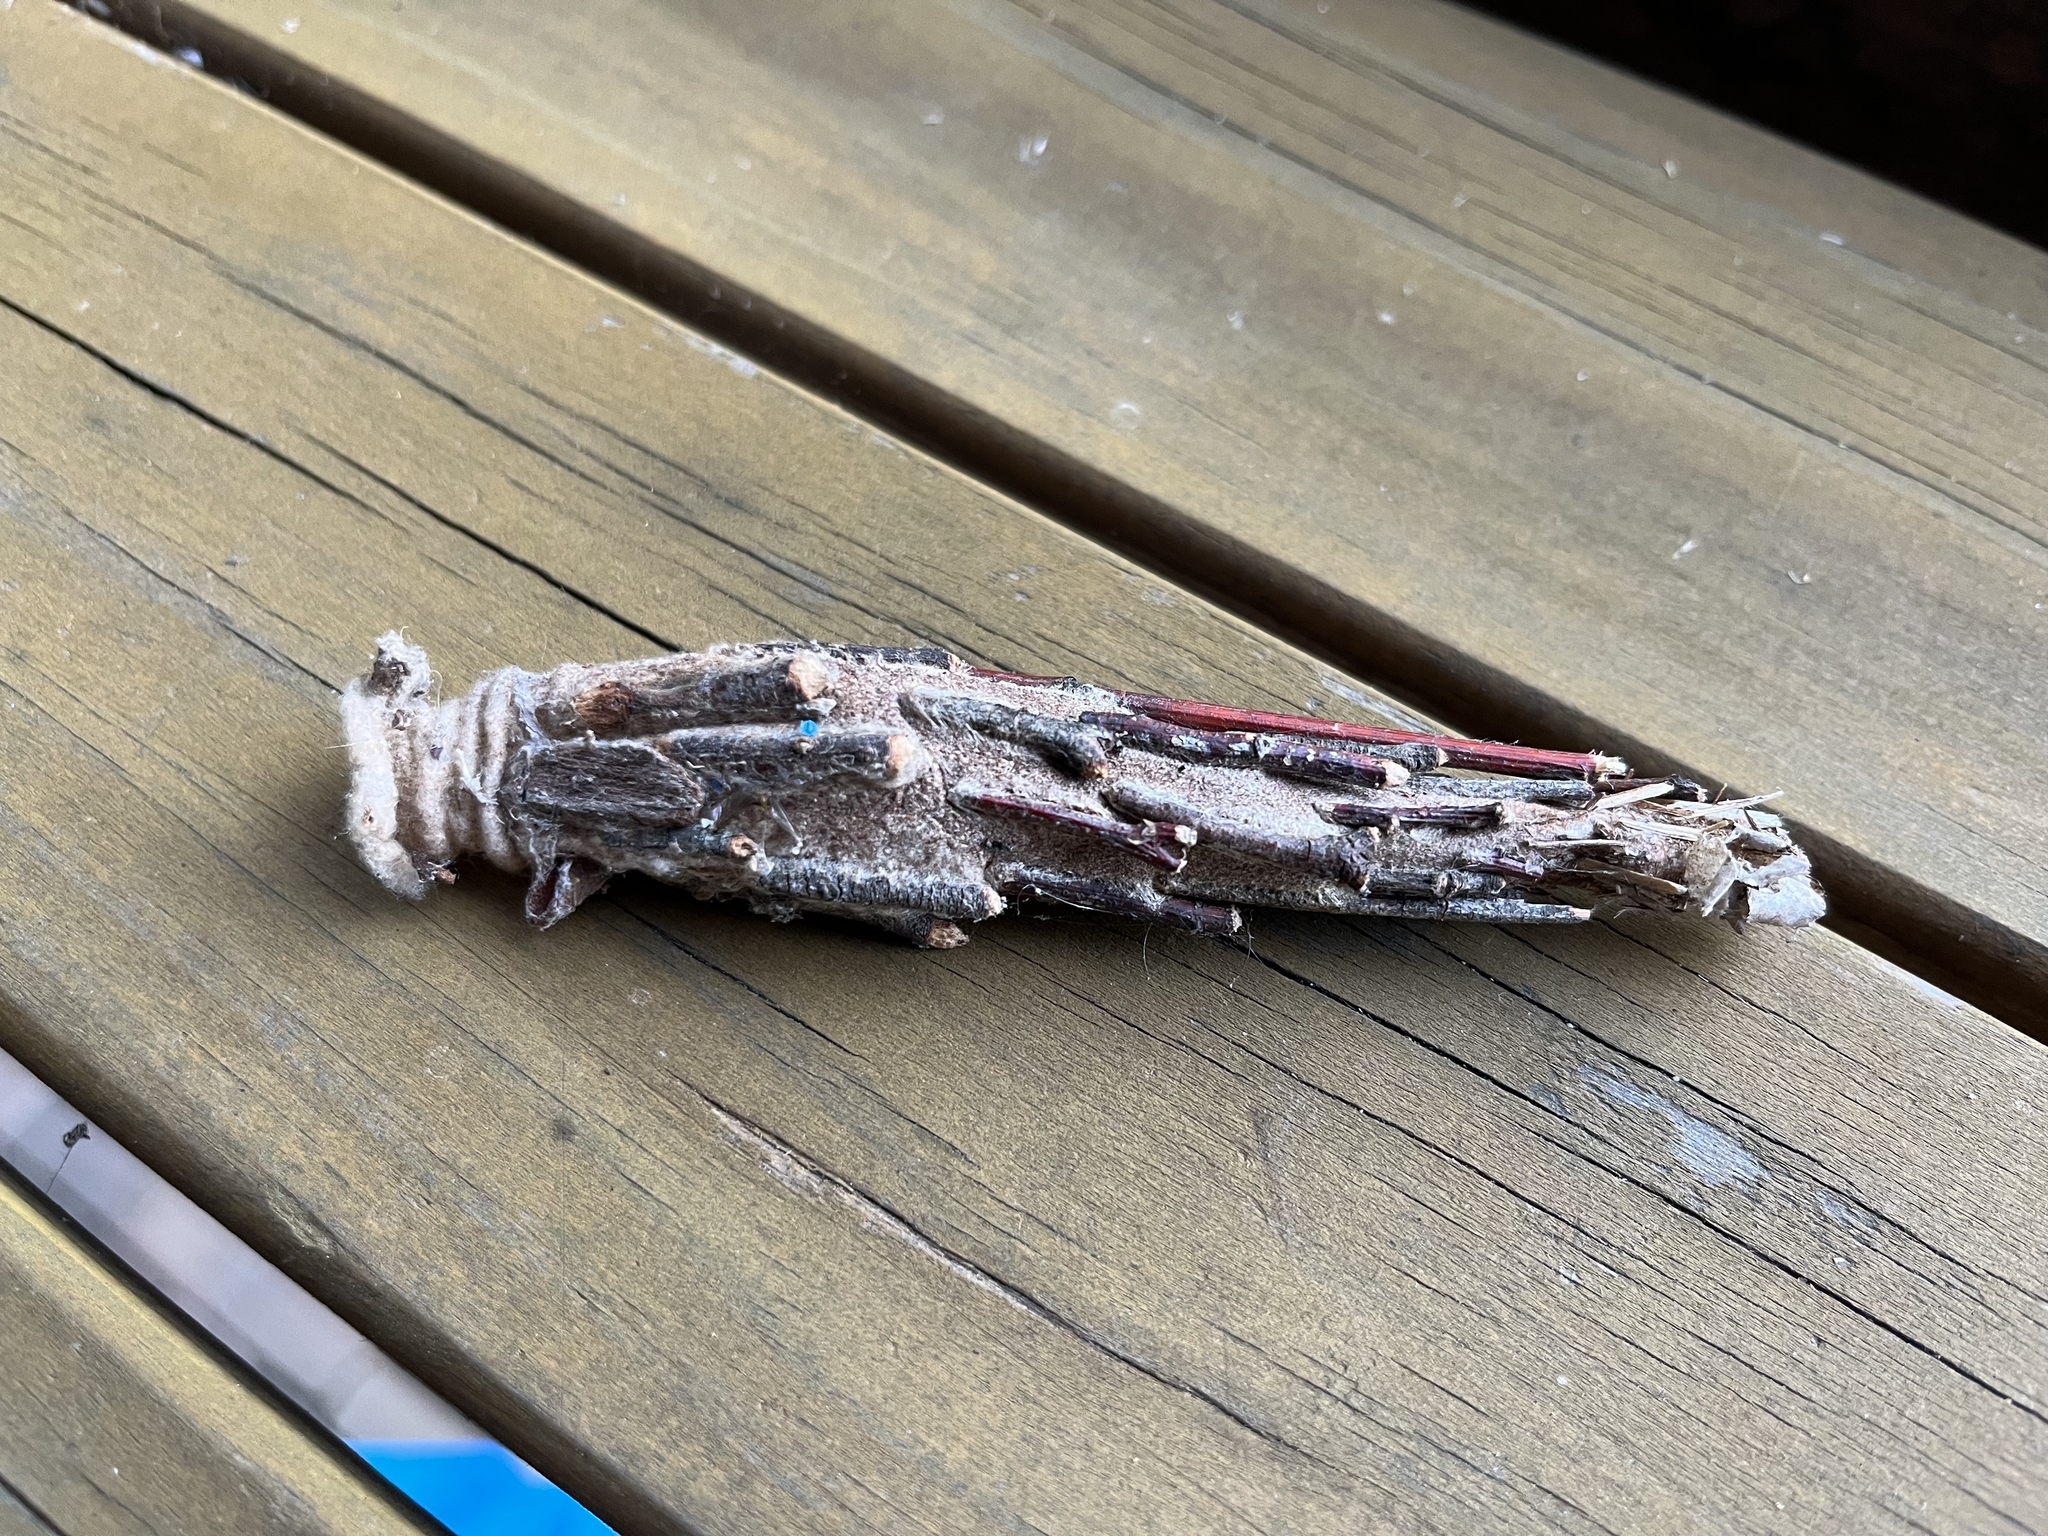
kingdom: Animalia
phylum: Arthropoda
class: Insecta
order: Lepidoptera
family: Psychidae
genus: Metura
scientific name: Metura elongatus
